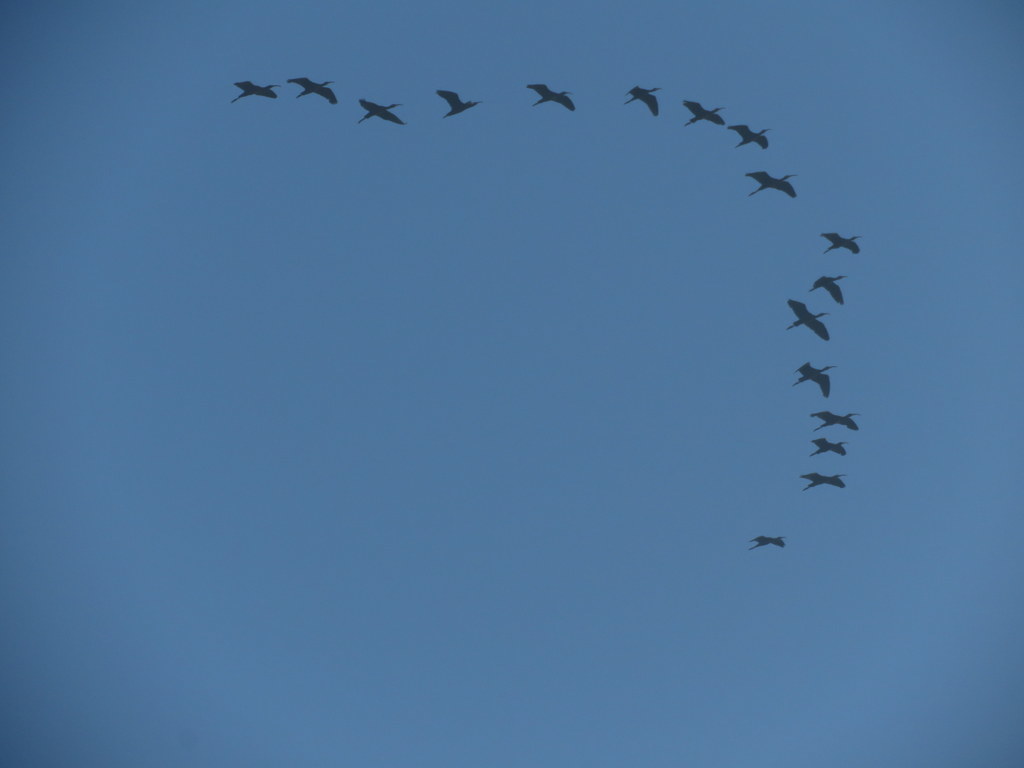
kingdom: Animalia
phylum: Chordata
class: Aves
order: Pelecaniformes
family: Threskiornithidae
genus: Plegadis
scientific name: Plegadis chihi
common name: White-faced ibis
